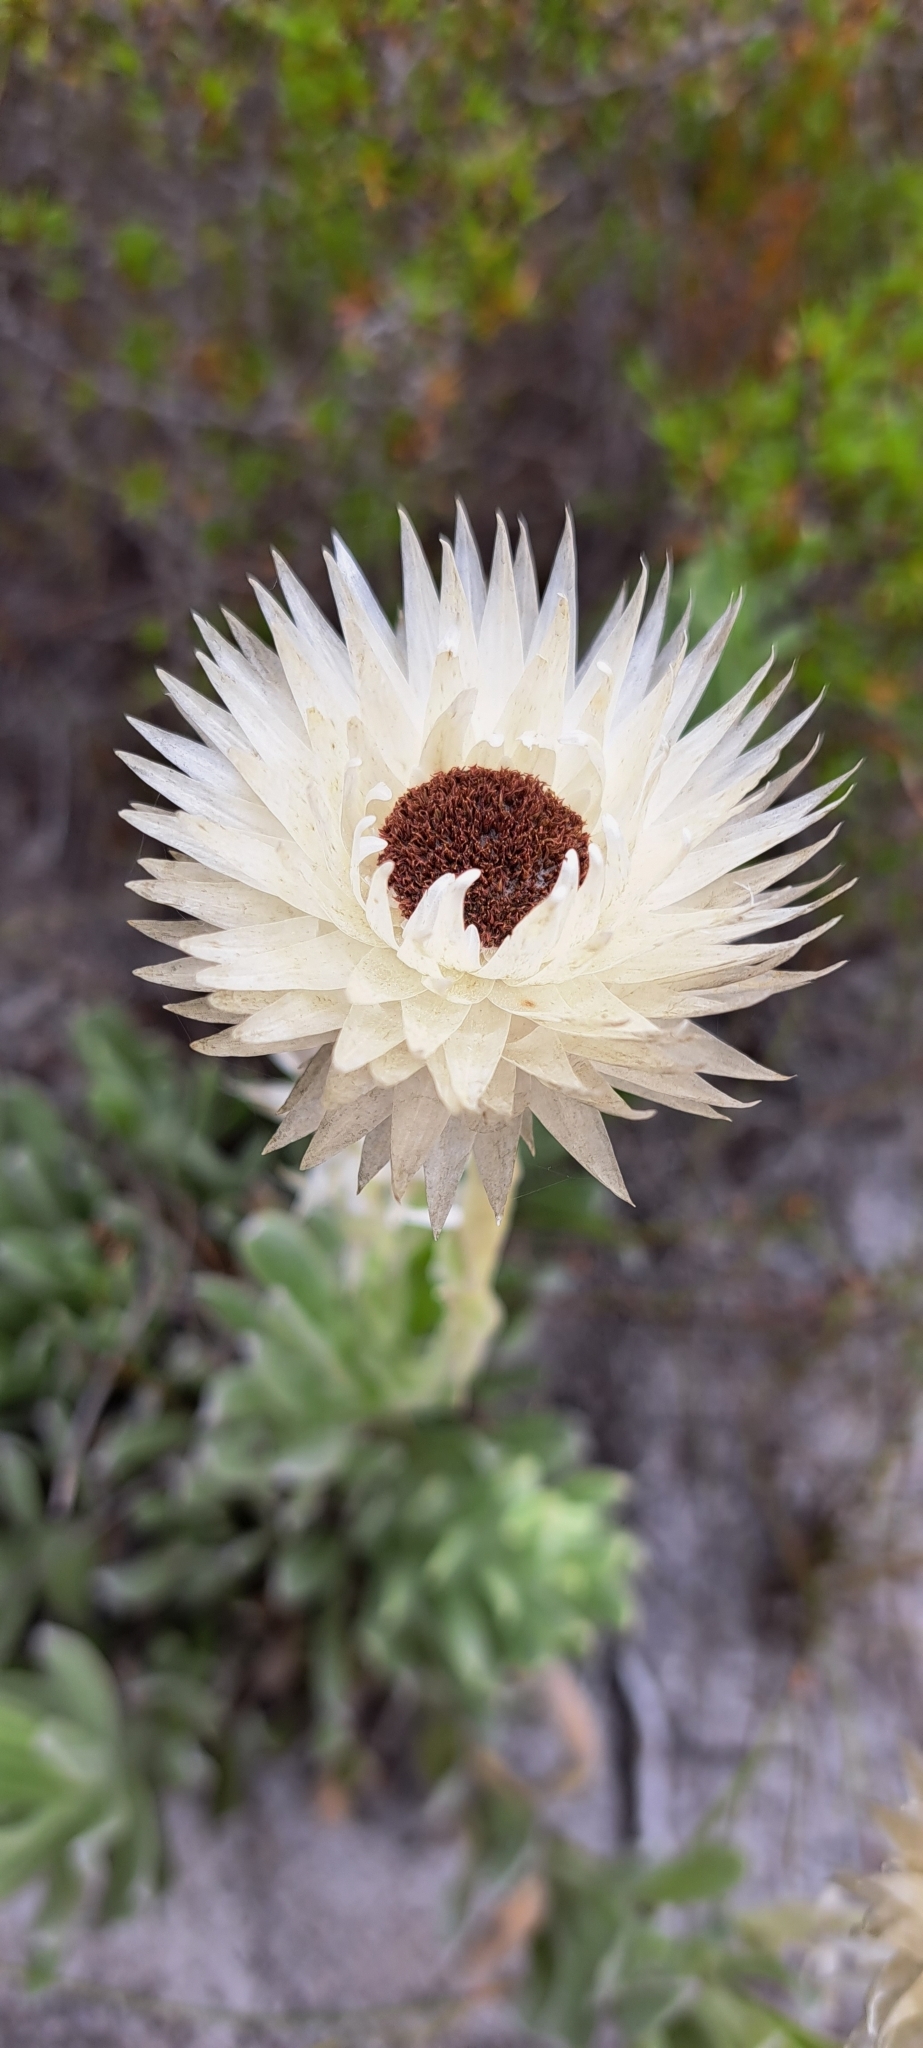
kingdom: Plantae
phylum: Tracheophyta
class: Magnoliopsida
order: Asterales
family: Asteraceae
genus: Syncarpha
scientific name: Syncarpha vestita
